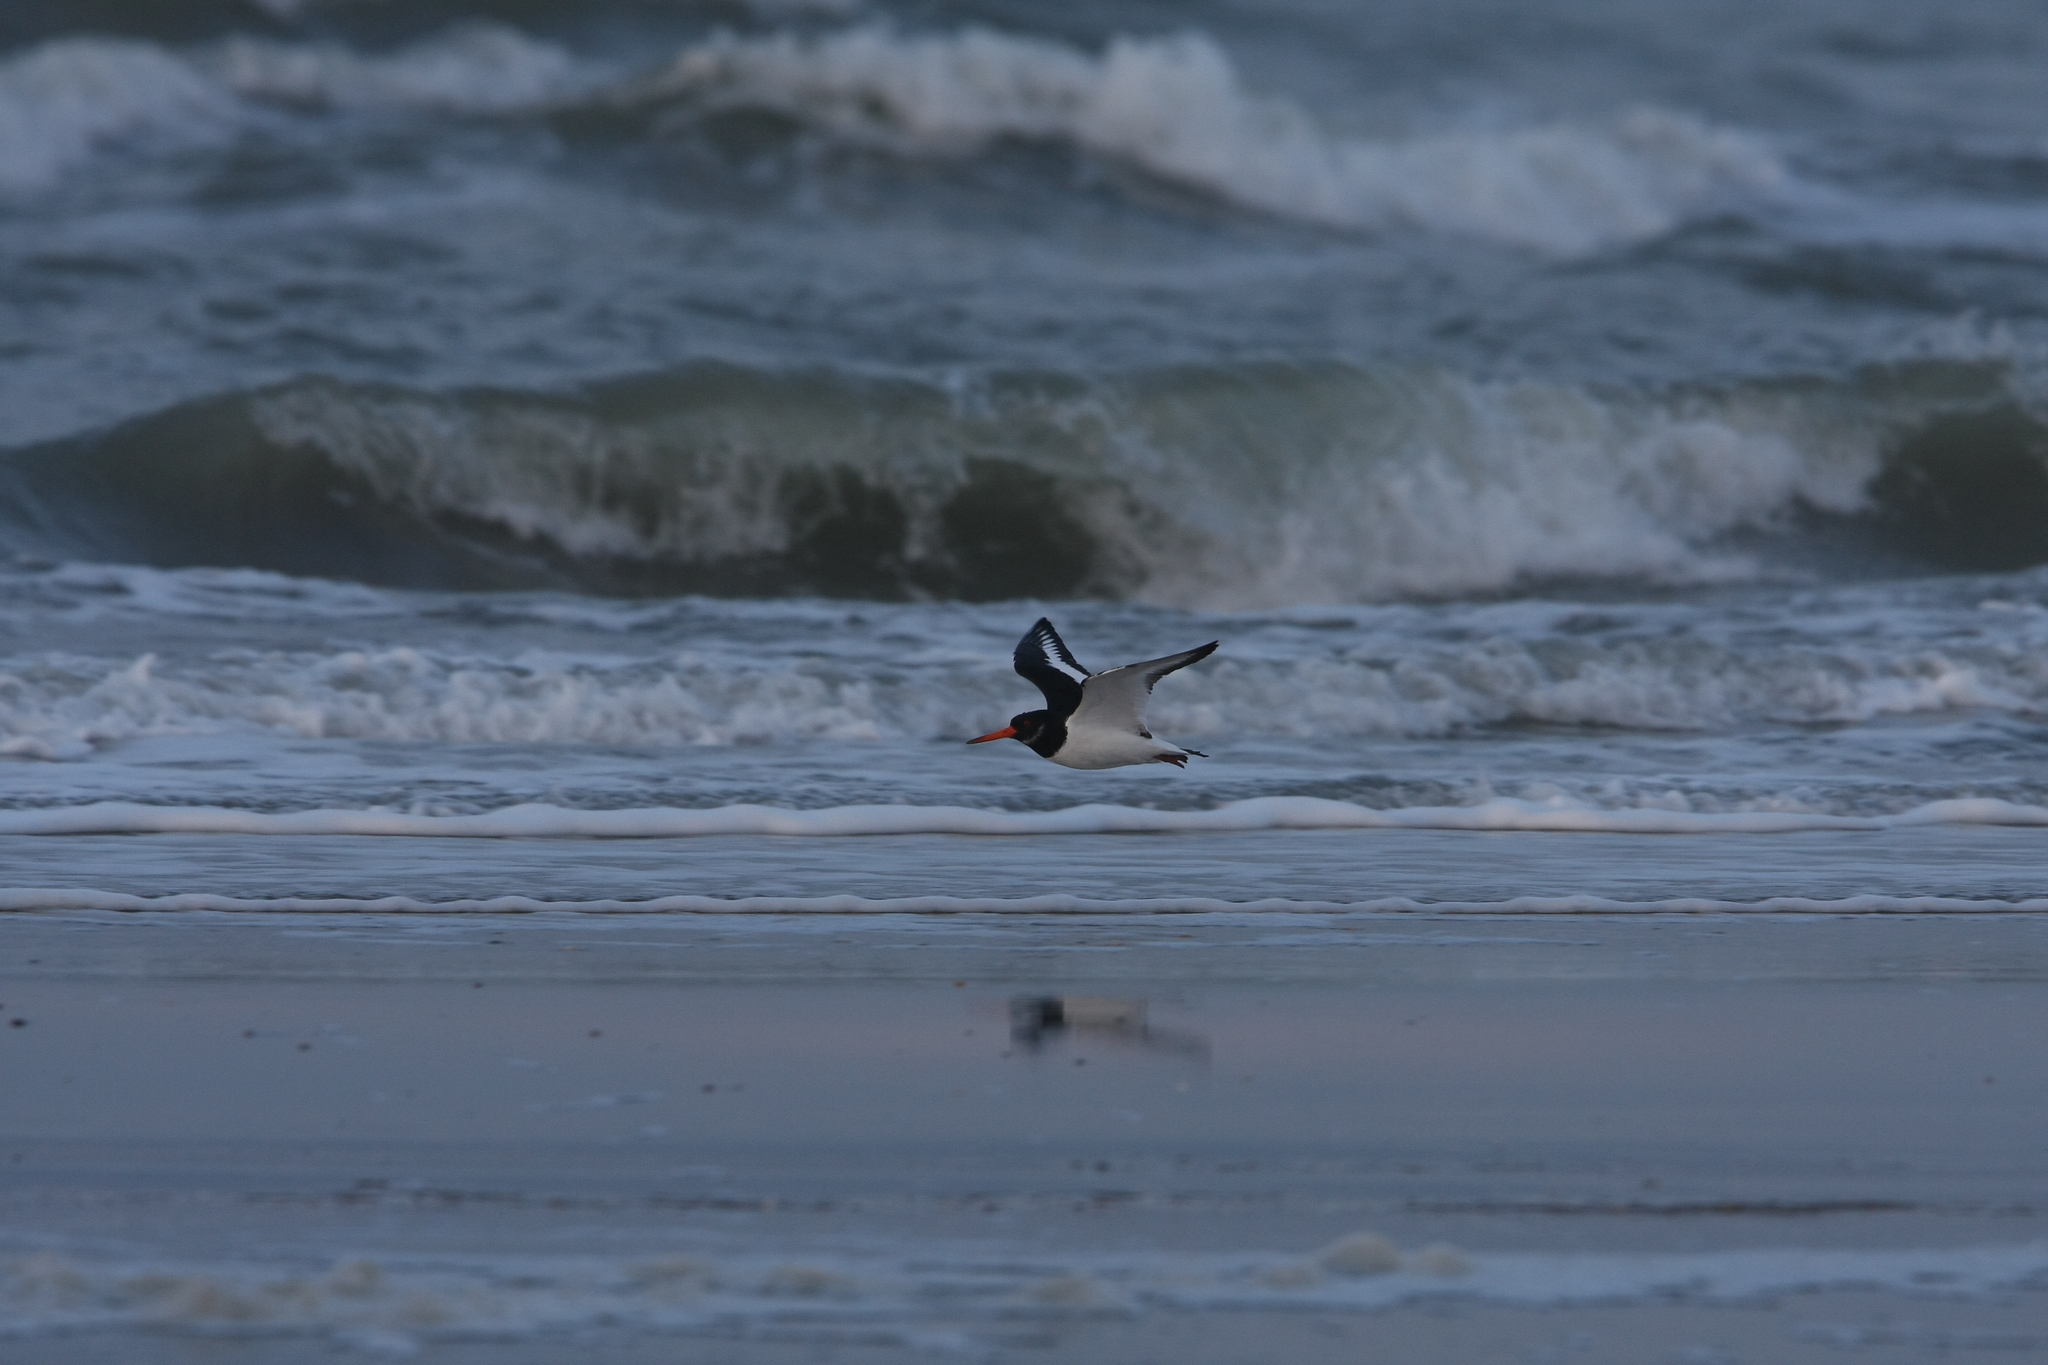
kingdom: Animalia
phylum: Chordata
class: Aves
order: Charadriiformes
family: Haematopodidae
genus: Haematopus
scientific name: Haematopus ostralegus
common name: Eurasian oystercatcher
